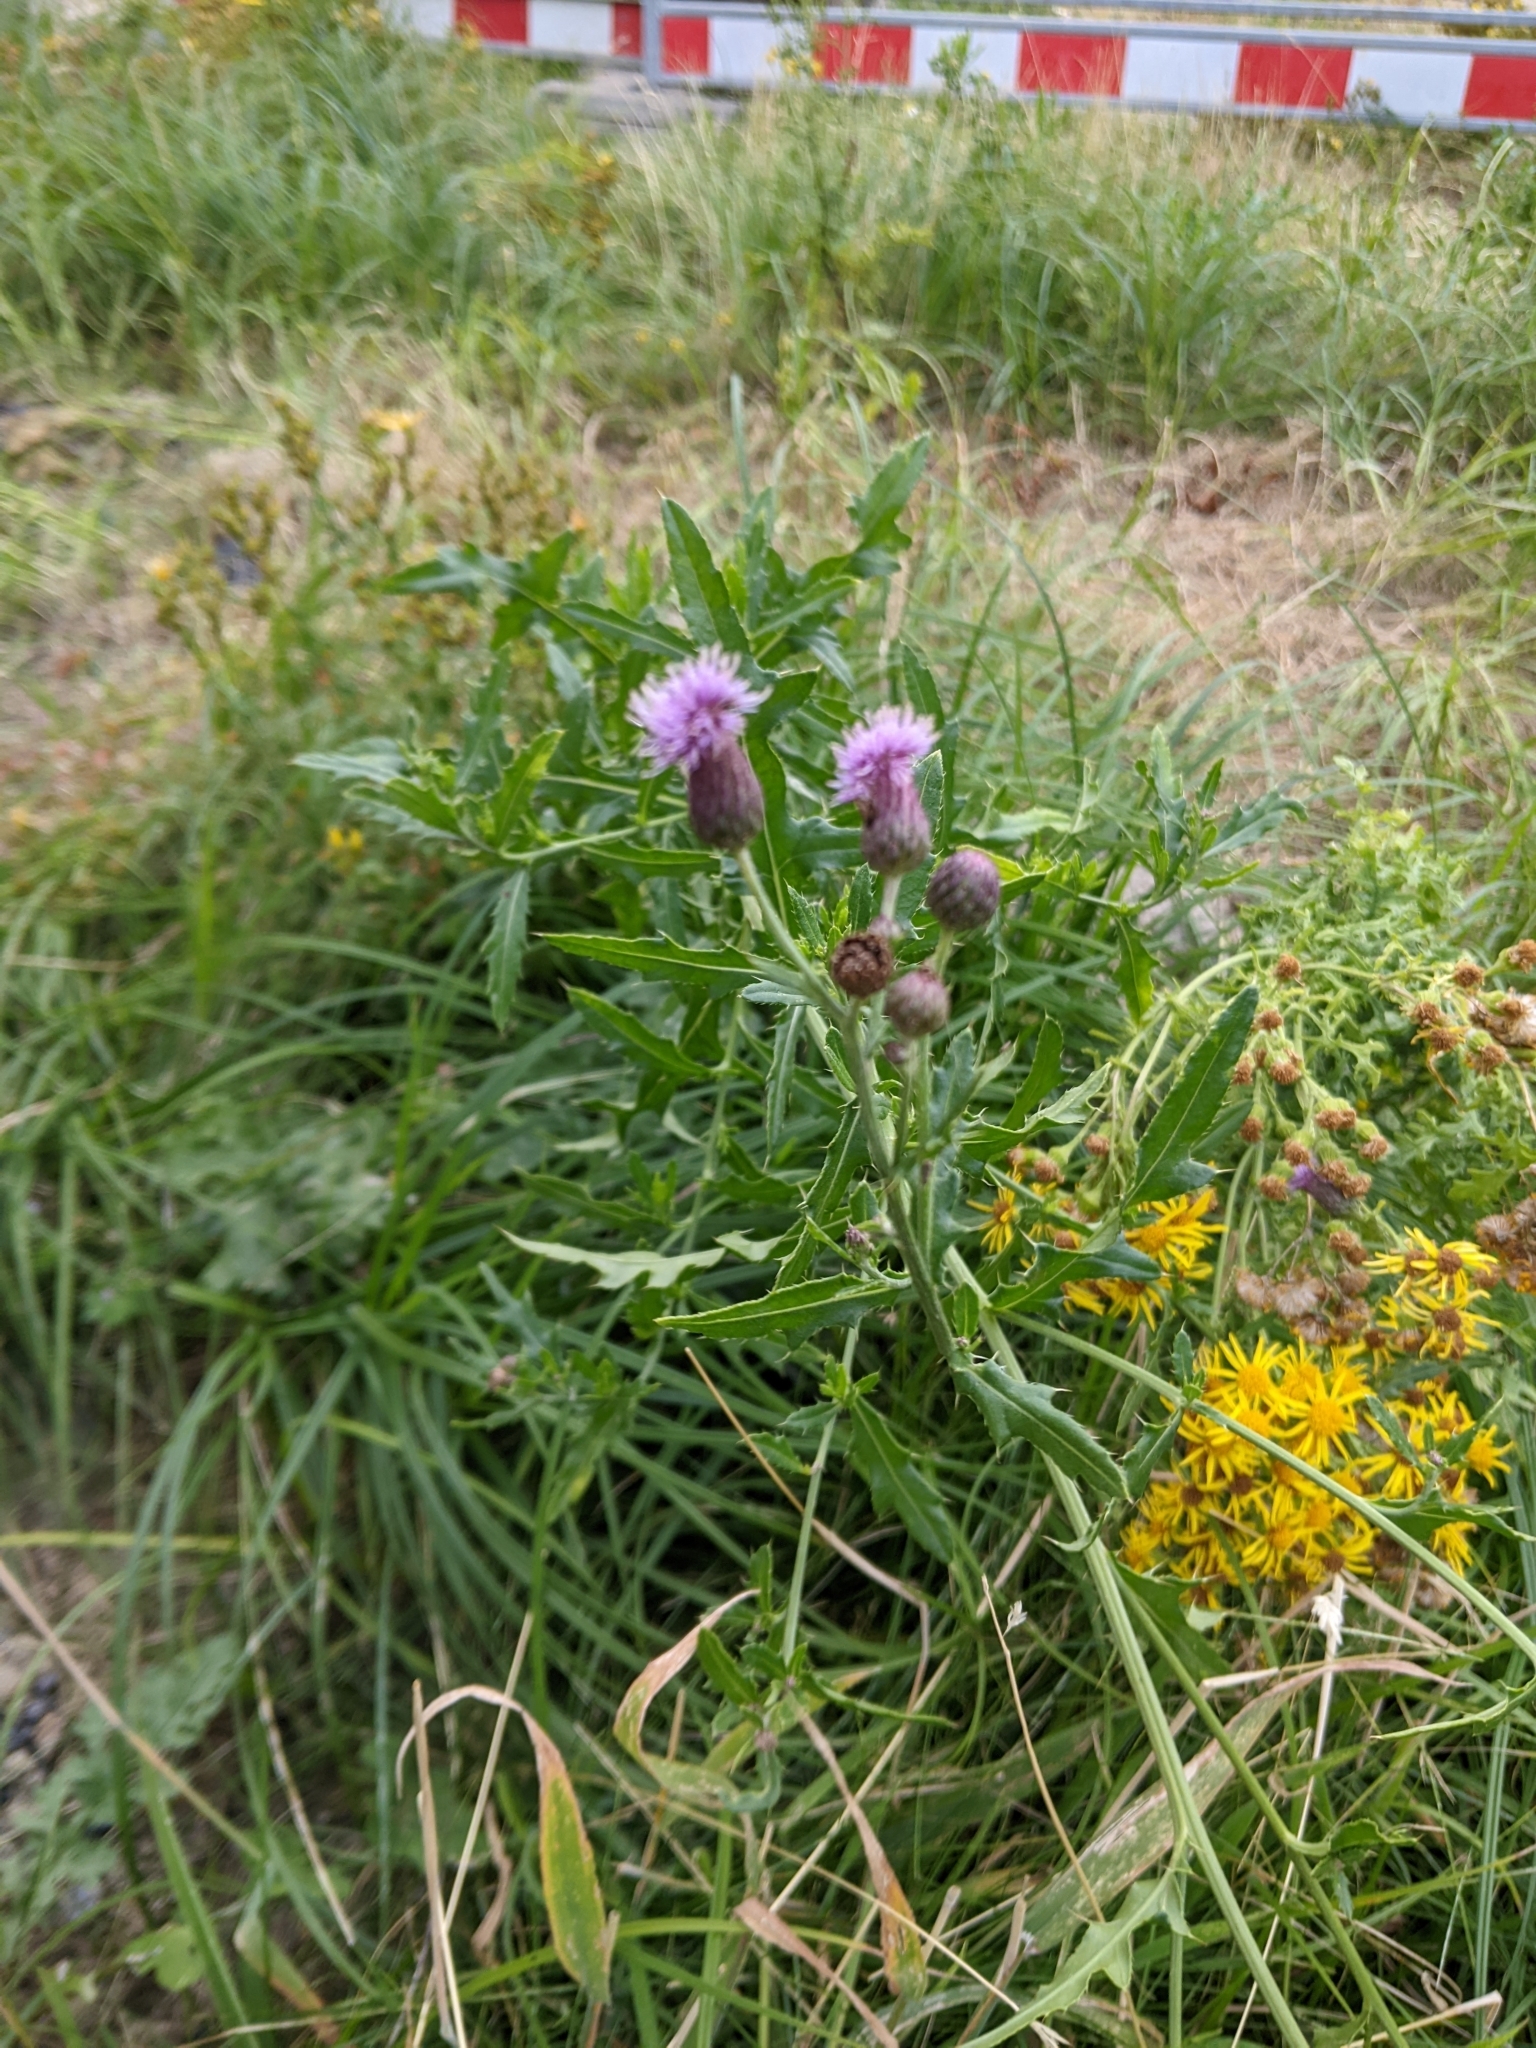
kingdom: Plantae
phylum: Tracheophyta
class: Magnoliopsida
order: Asterales
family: Asteraceae
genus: Cirsium
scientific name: Cirsium arvense
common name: Creeping thistle
